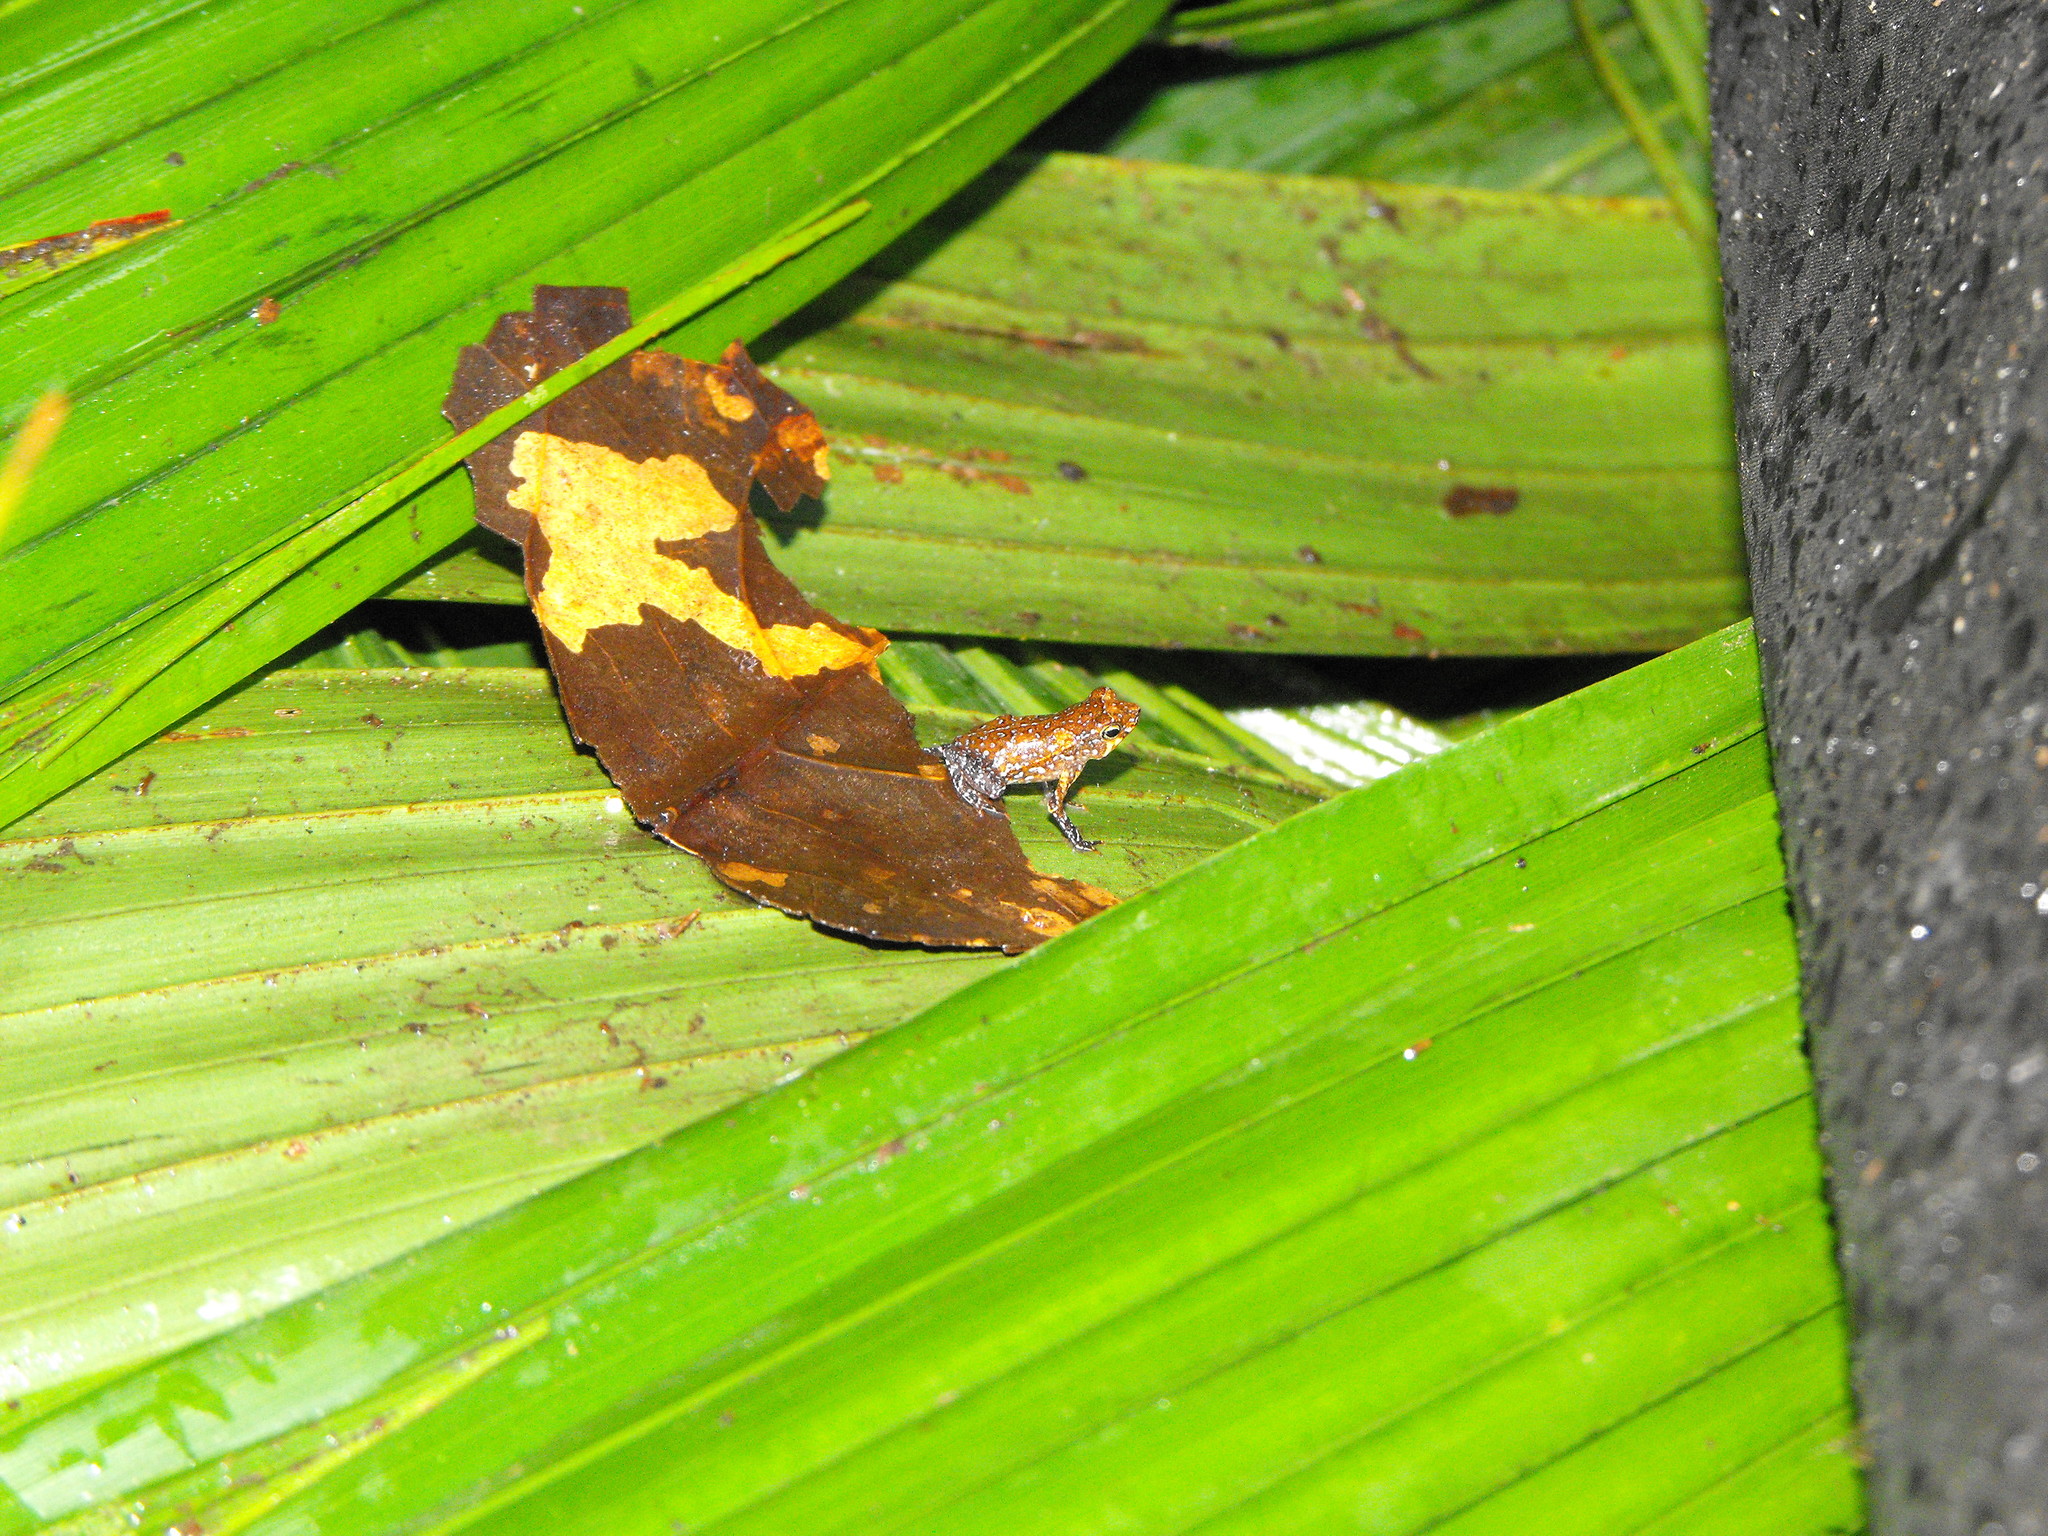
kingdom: Animalia
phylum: Chordata
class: Amphibia
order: Anura
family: Bufonidae
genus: Rhinella
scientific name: Rhinella
